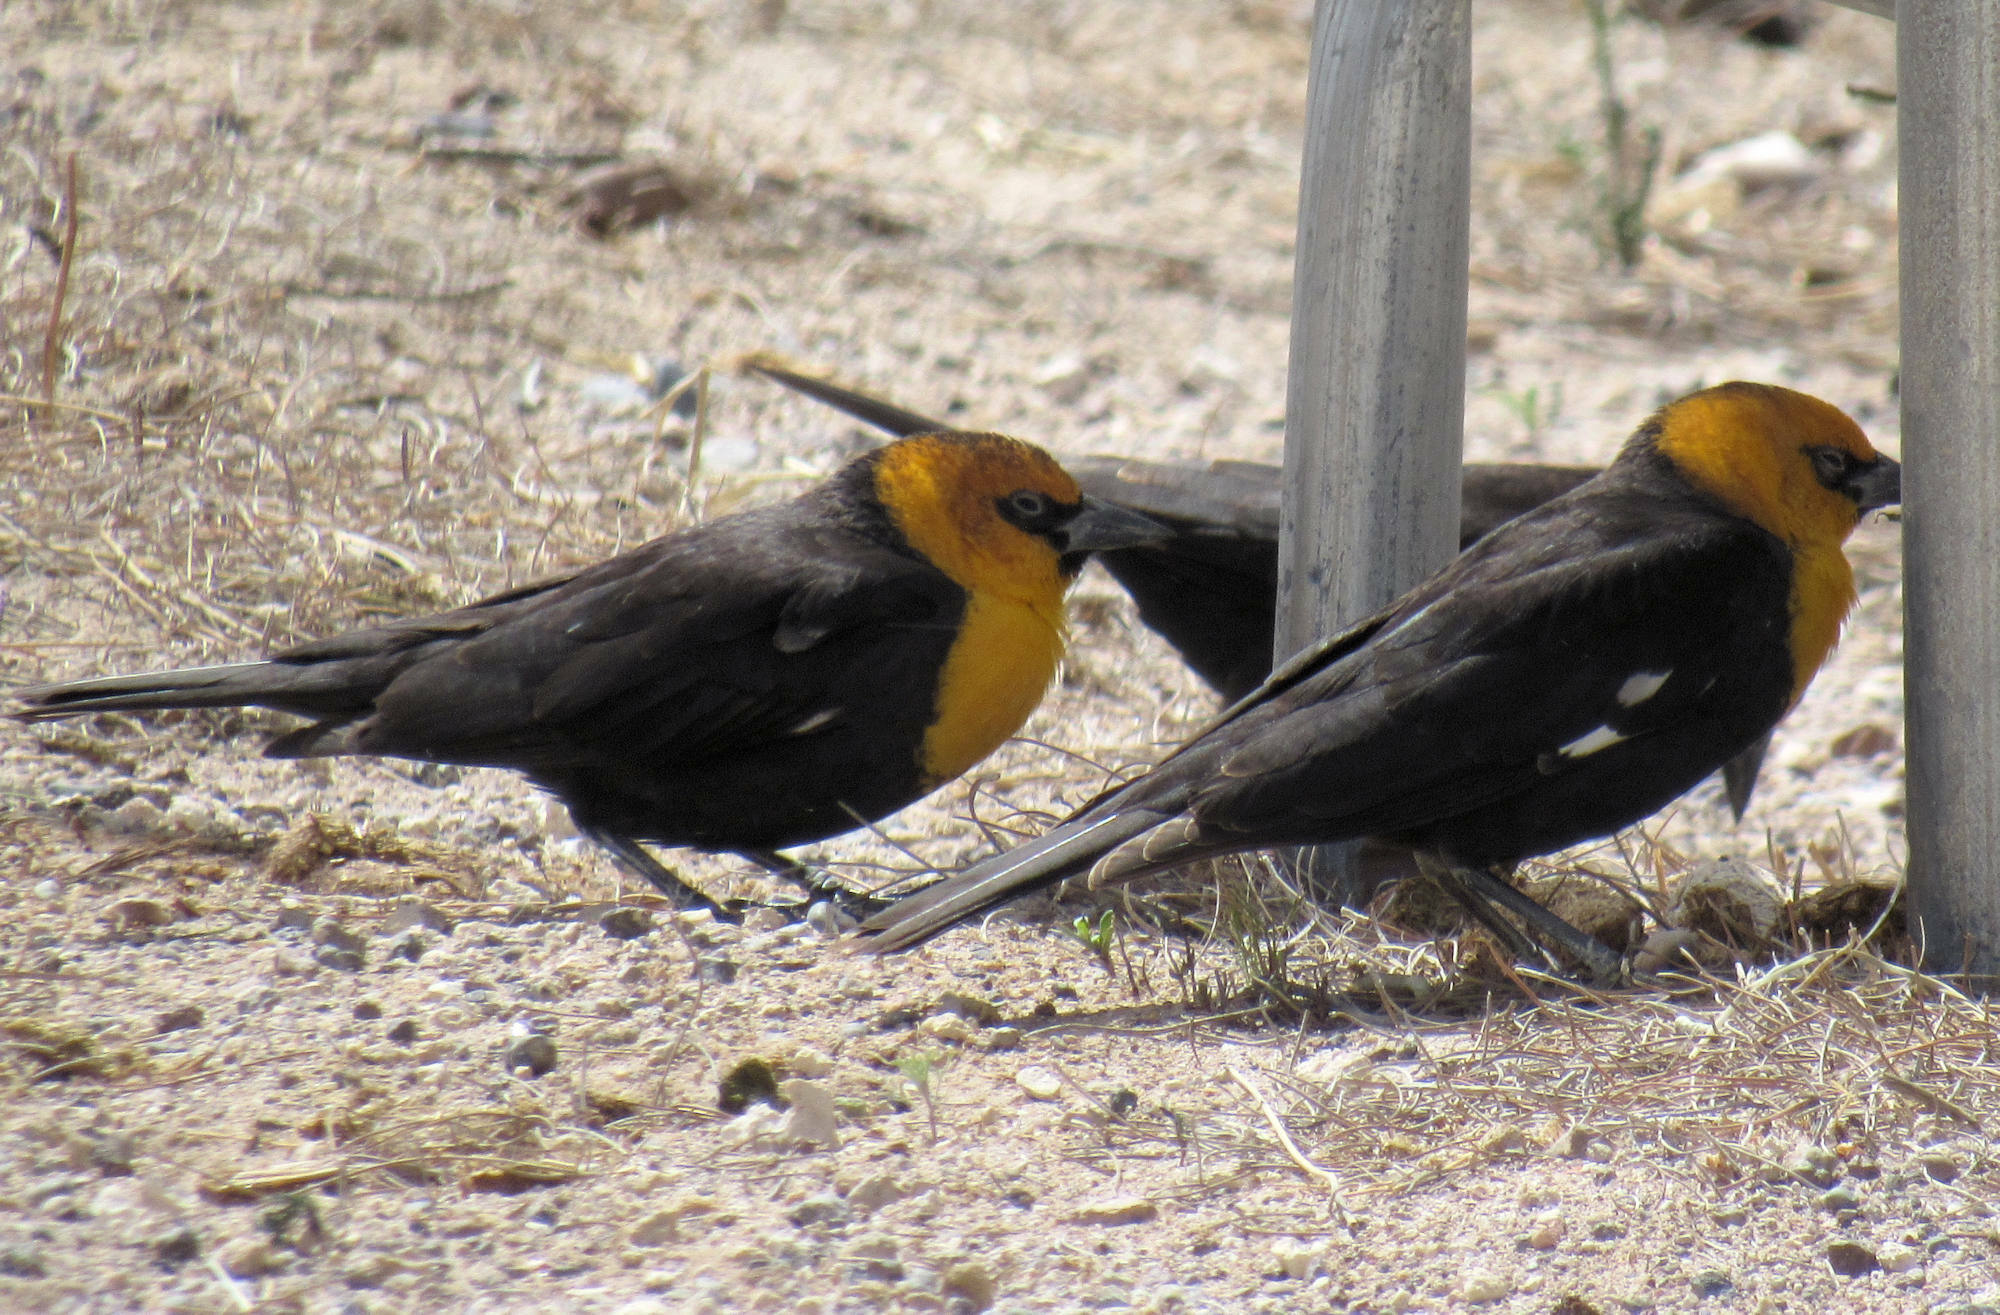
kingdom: Animalia
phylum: Chordata
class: Aves
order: Passeriformes
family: Icteridae
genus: Xanthocephalus
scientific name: Xanthocephalus xanthocephalus
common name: Yellow-headed blackbird
